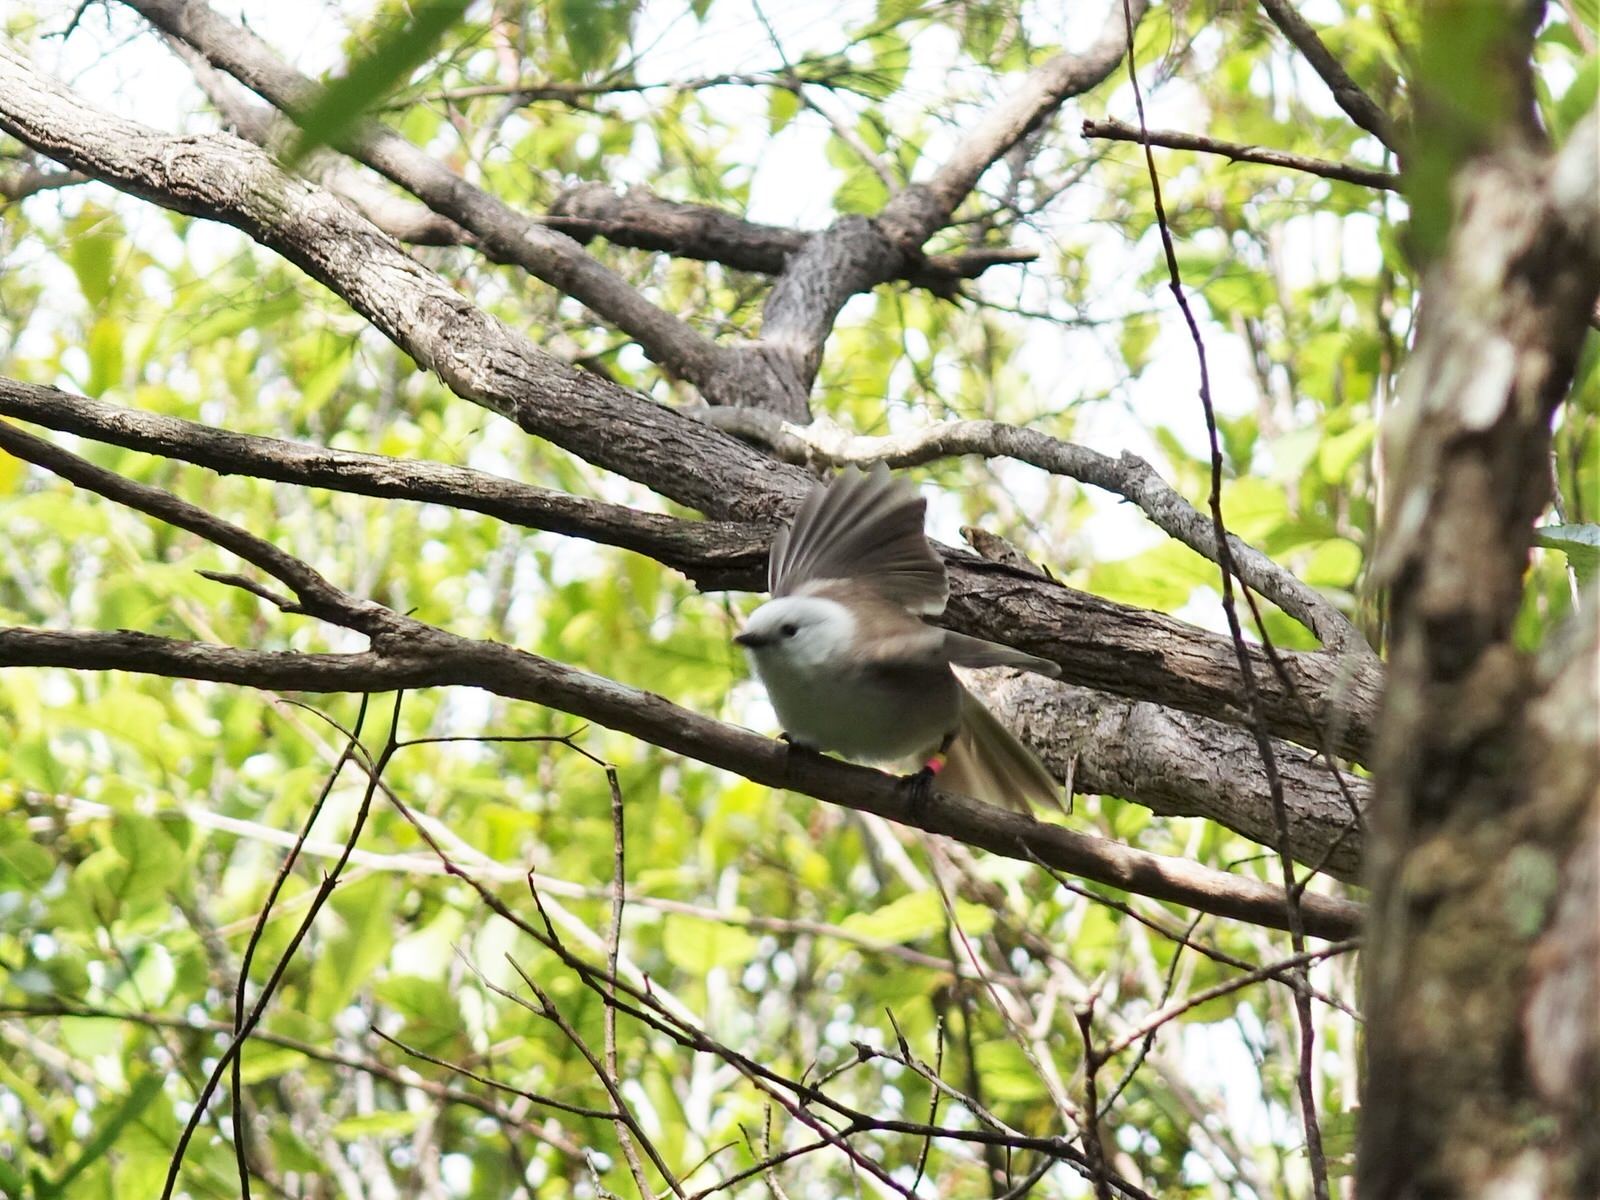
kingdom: Animalia
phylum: Chordata
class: Aves
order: Passeriformes
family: Acanthizidae
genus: Mohoua
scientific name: Mohoua albicilla
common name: Whitehead
